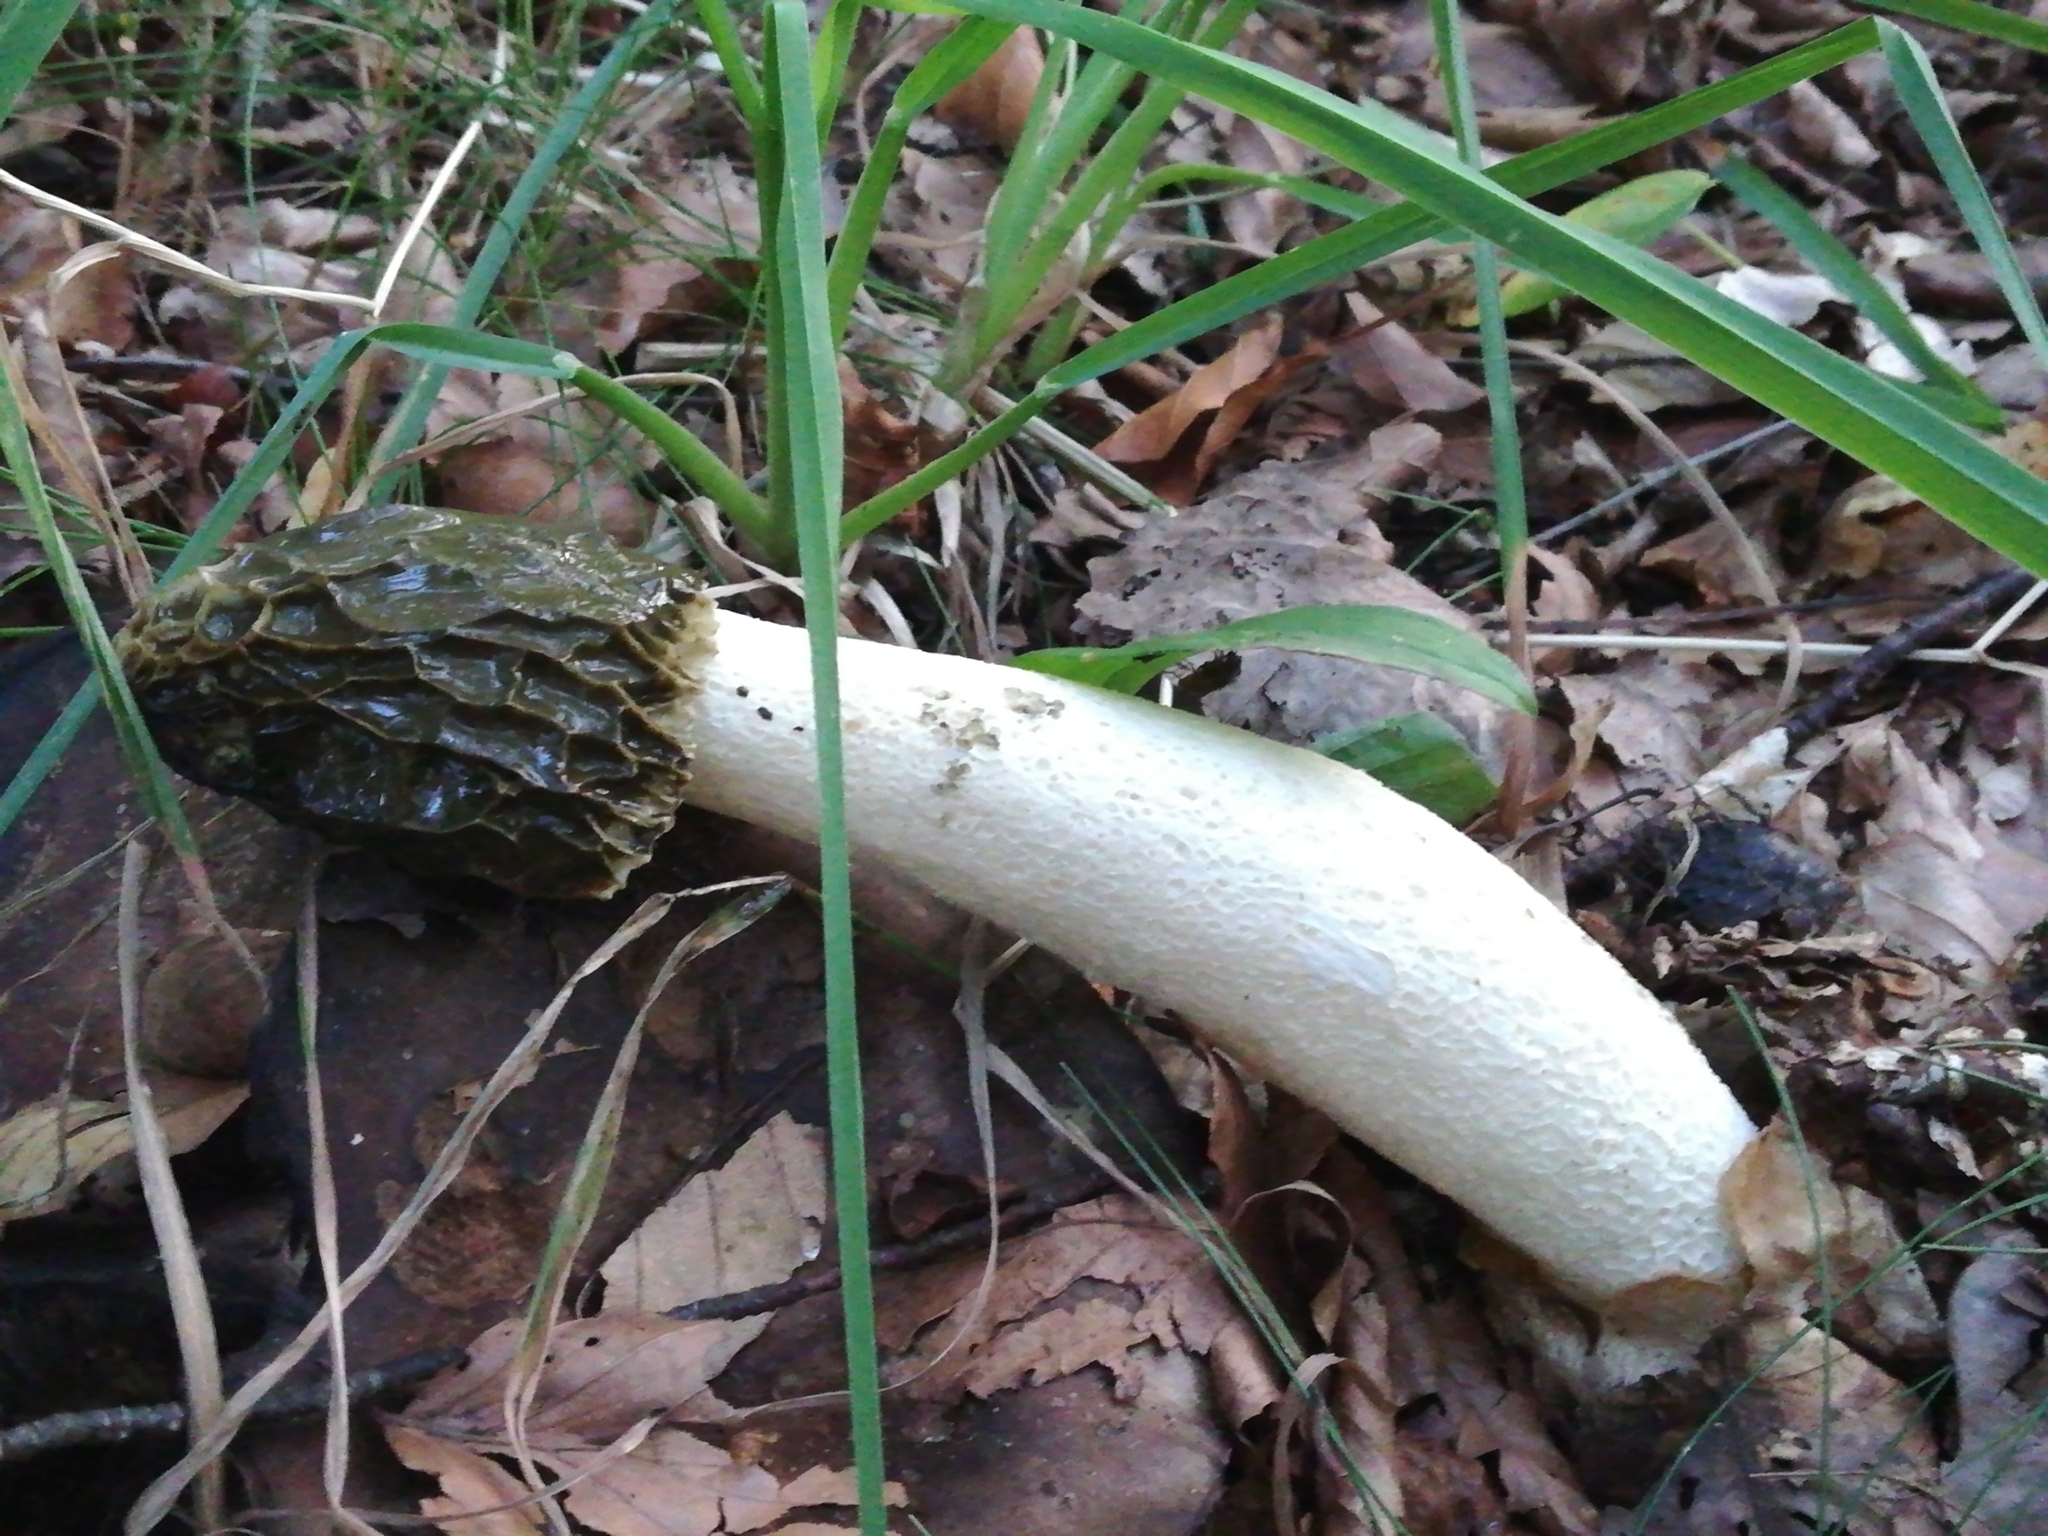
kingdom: Fungi
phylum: Basidiomycota
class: Agaricomycetes
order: Phallales
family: Phallaceae
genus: Phallus
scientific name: Phallus impudicus
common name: Common stinkhorn
